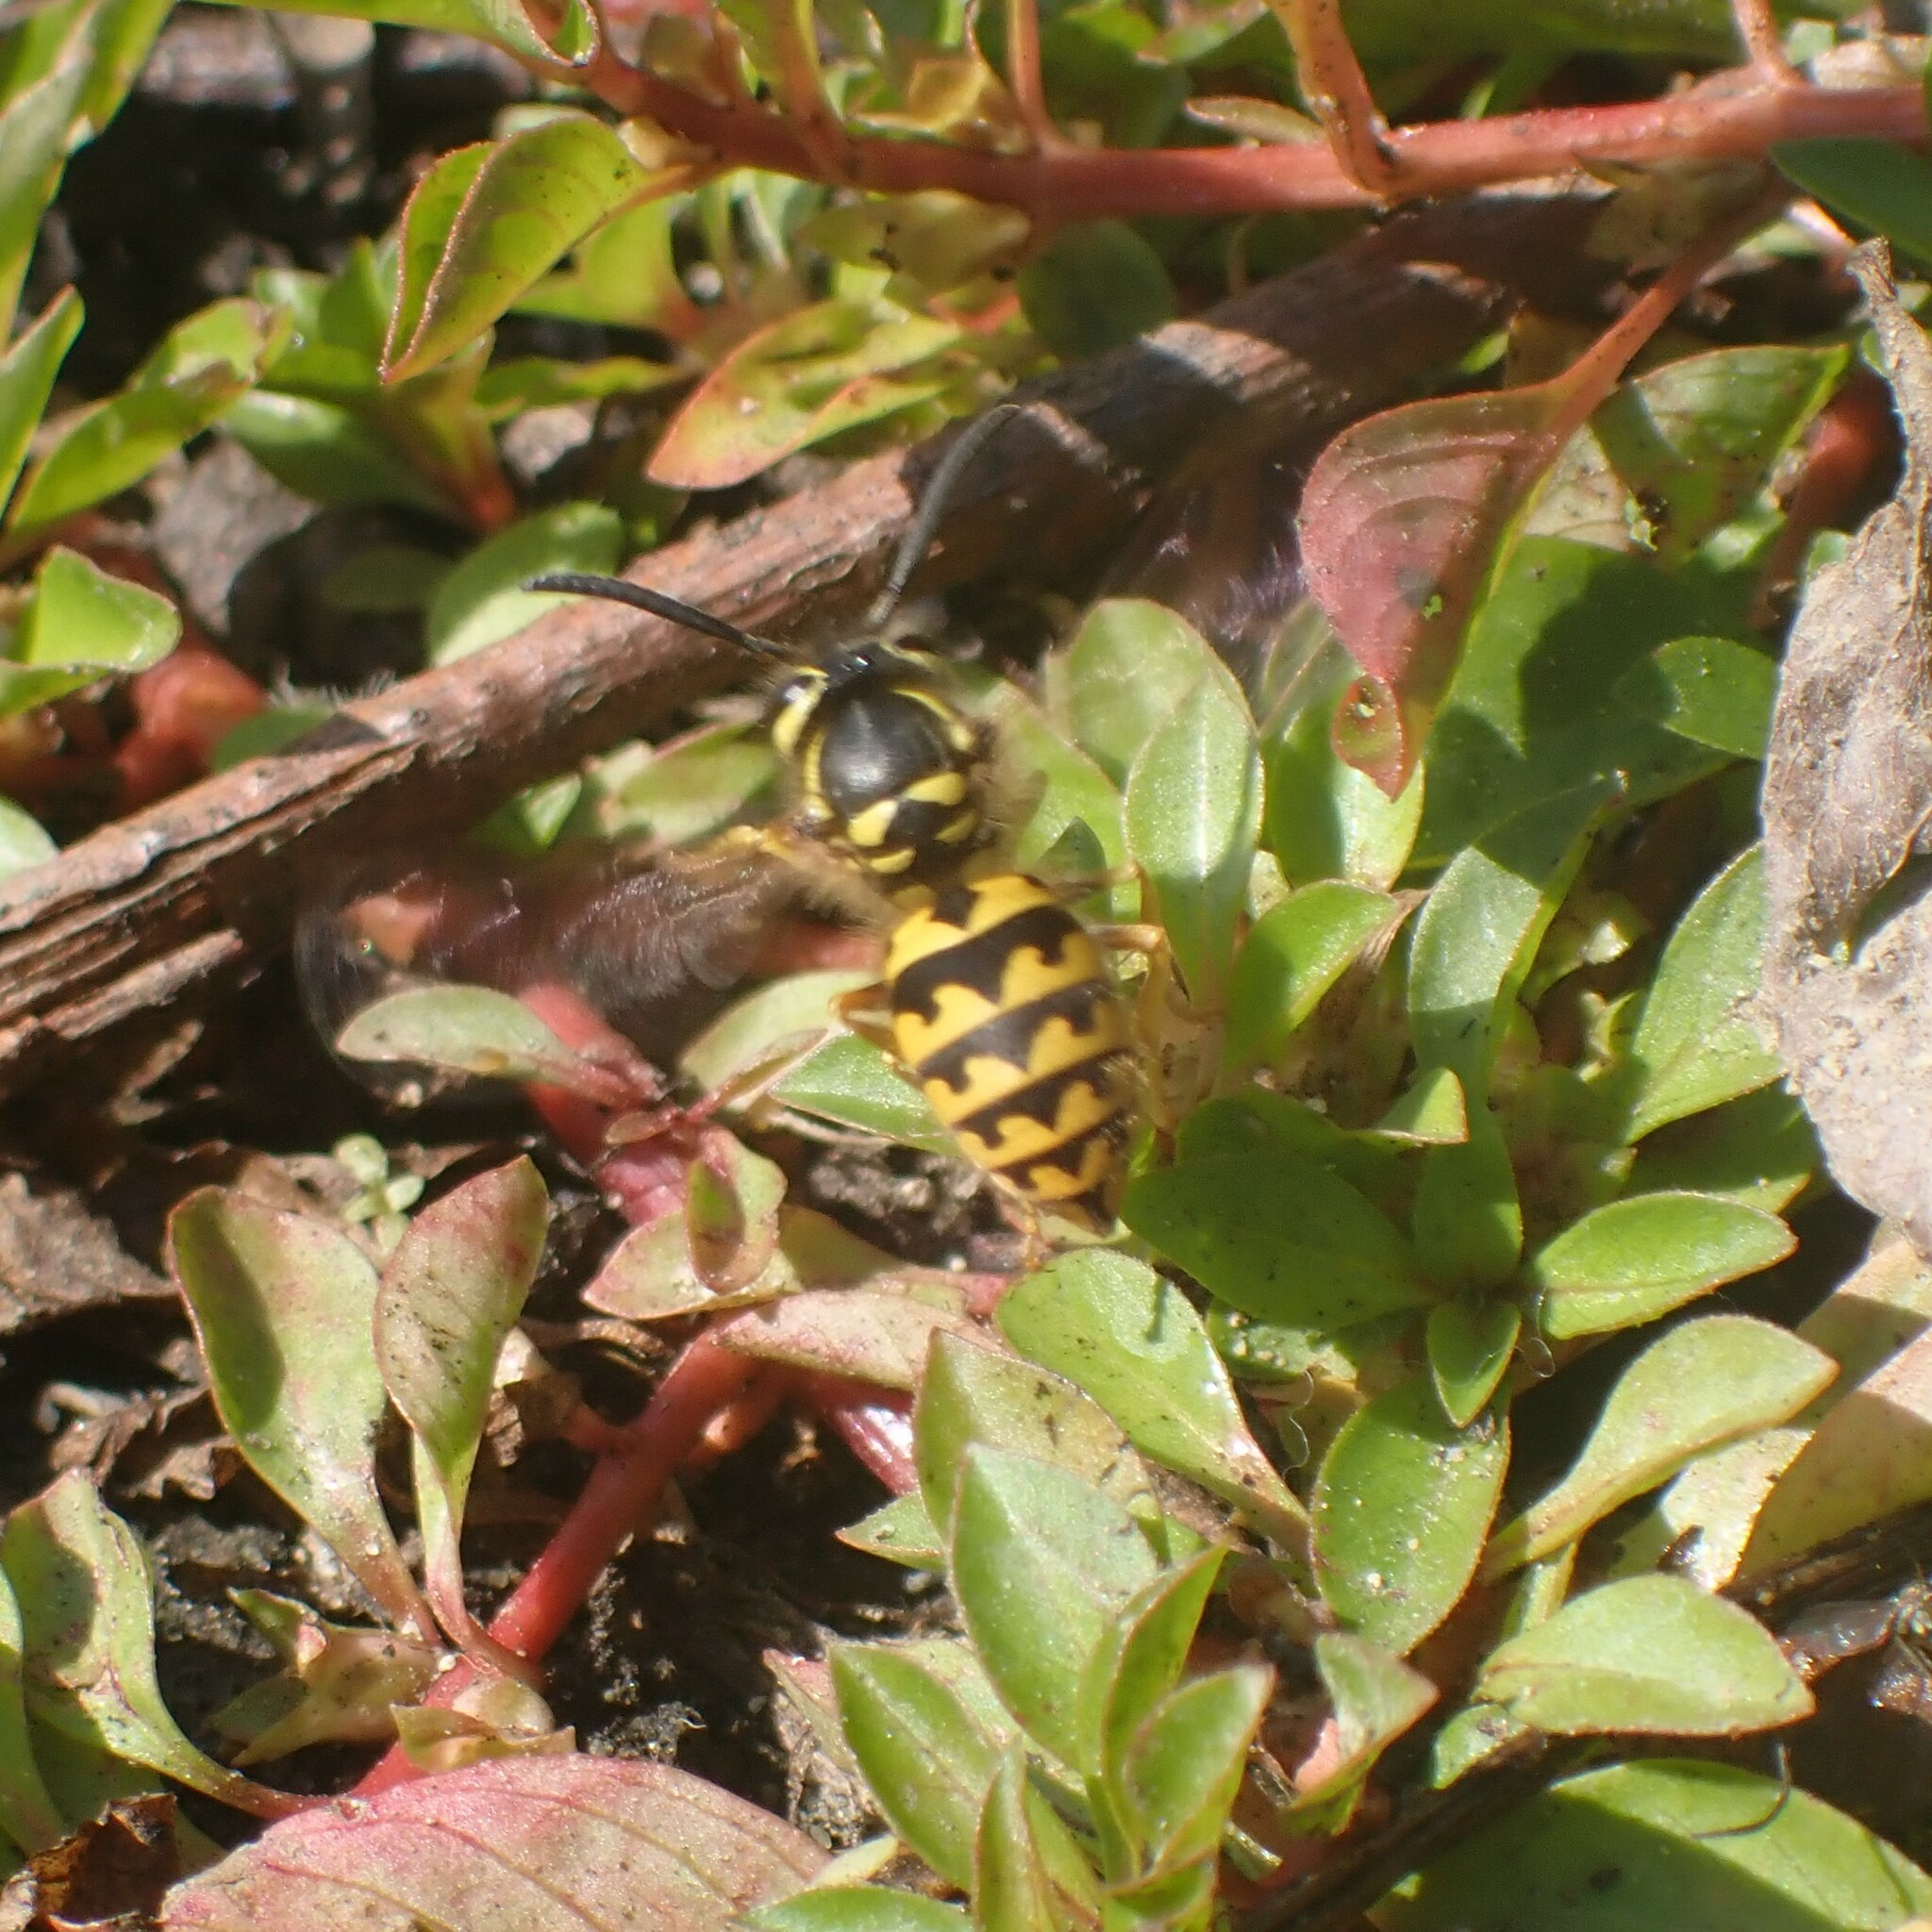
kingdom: Animalia
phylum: Arthropoda
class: Insecta
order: Hymenoptera
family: Vespidae
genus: Vespula
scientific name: Vespula pensylvanica
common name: Western yellowjacket
